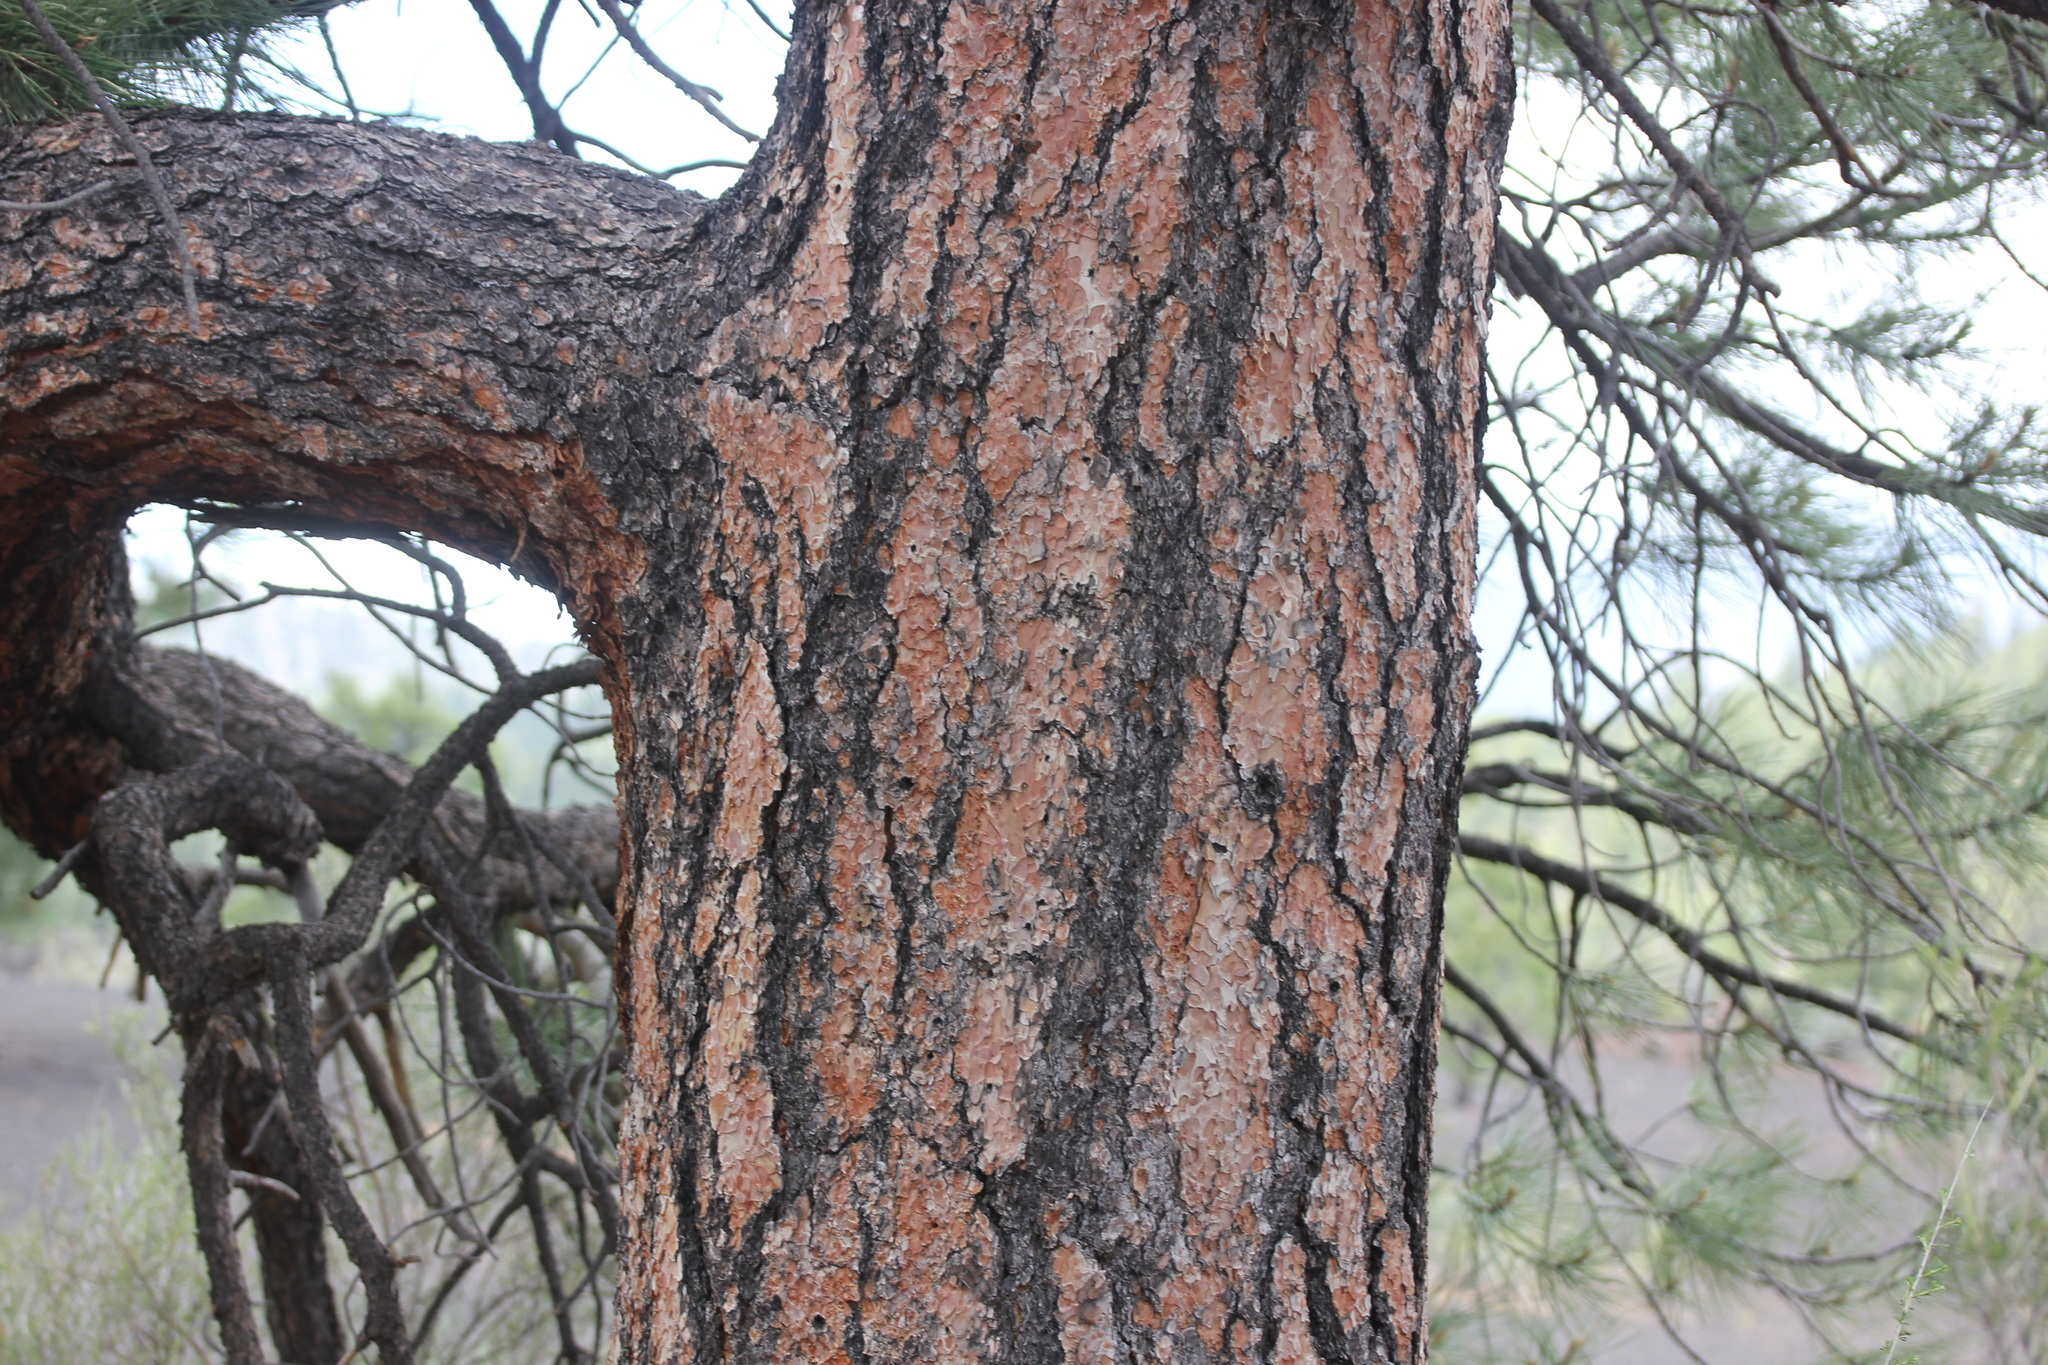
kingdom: Plantae
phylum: Tracheophyta
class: Pinopsida
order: Pinales
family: Pinaceae
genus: Pinus
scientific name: Pinus ponderosa
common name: Western yellow-pine
